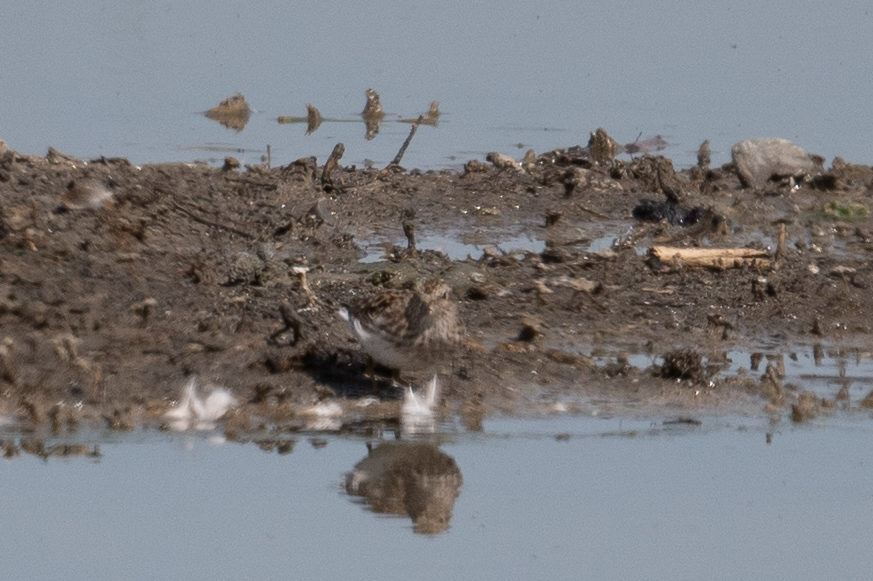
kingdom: Animalia
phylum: Chordata
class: Aves
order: Charadriiformes
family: Scolopacidae
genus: Calidris
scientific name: Calidris minutilla
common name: Least sandpiper
